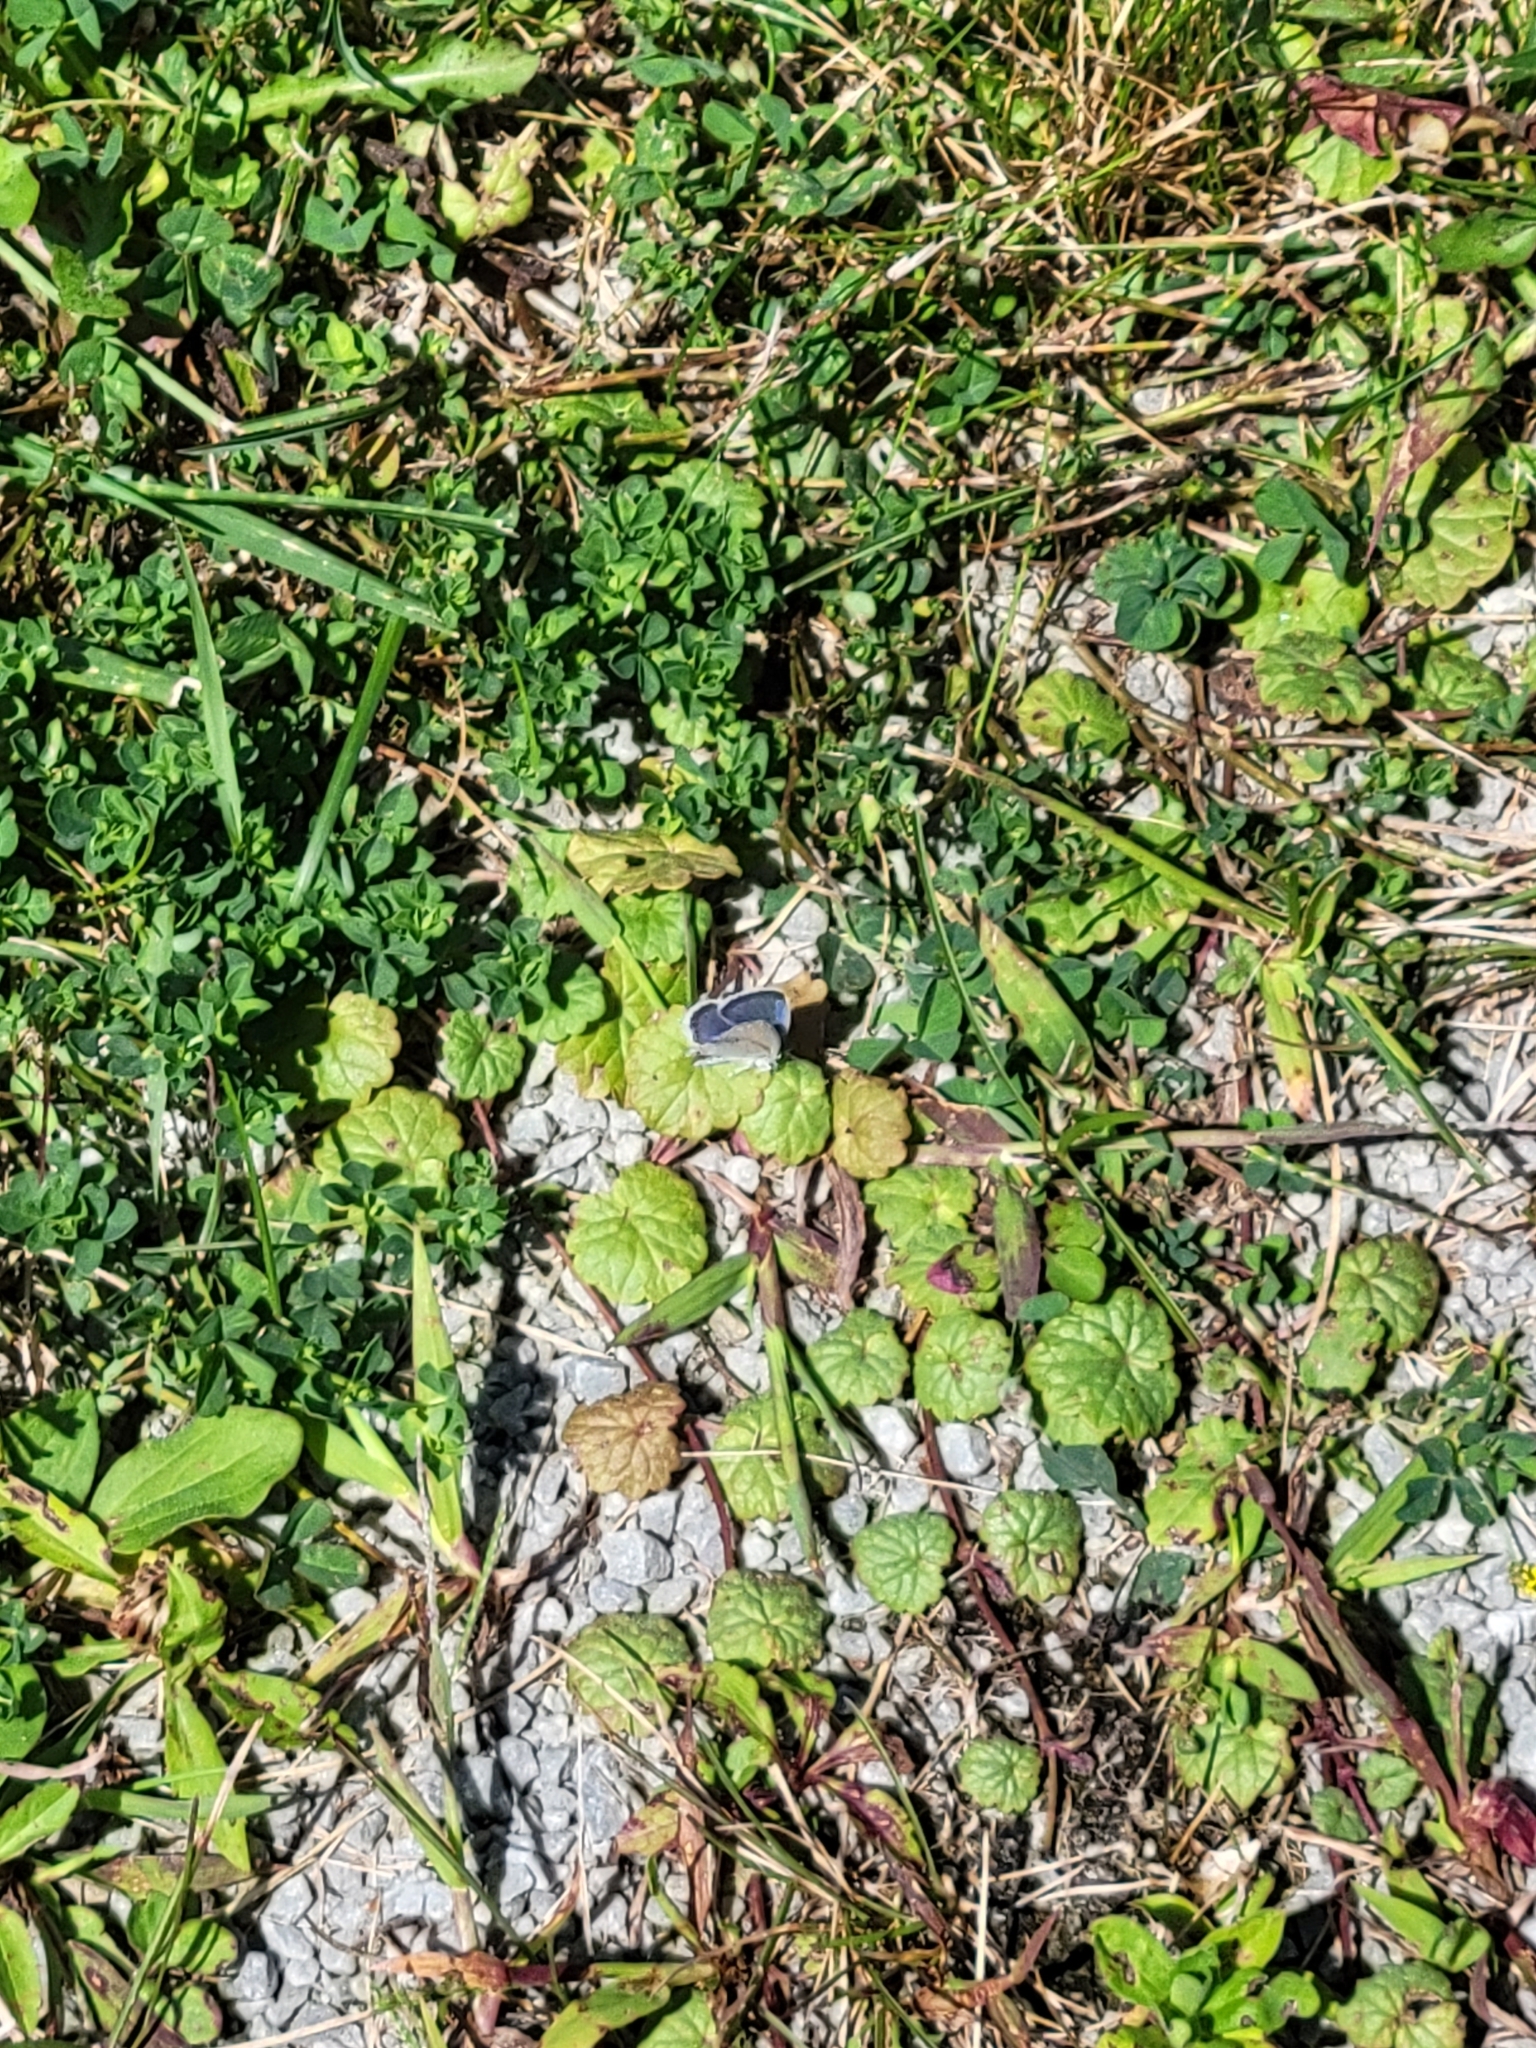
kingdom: Animalia
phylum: Arthropoda
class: Insecta
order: Lepidoptera
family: Lycaenidae
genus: Elkalyce
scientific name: Elkalyce comyntas
